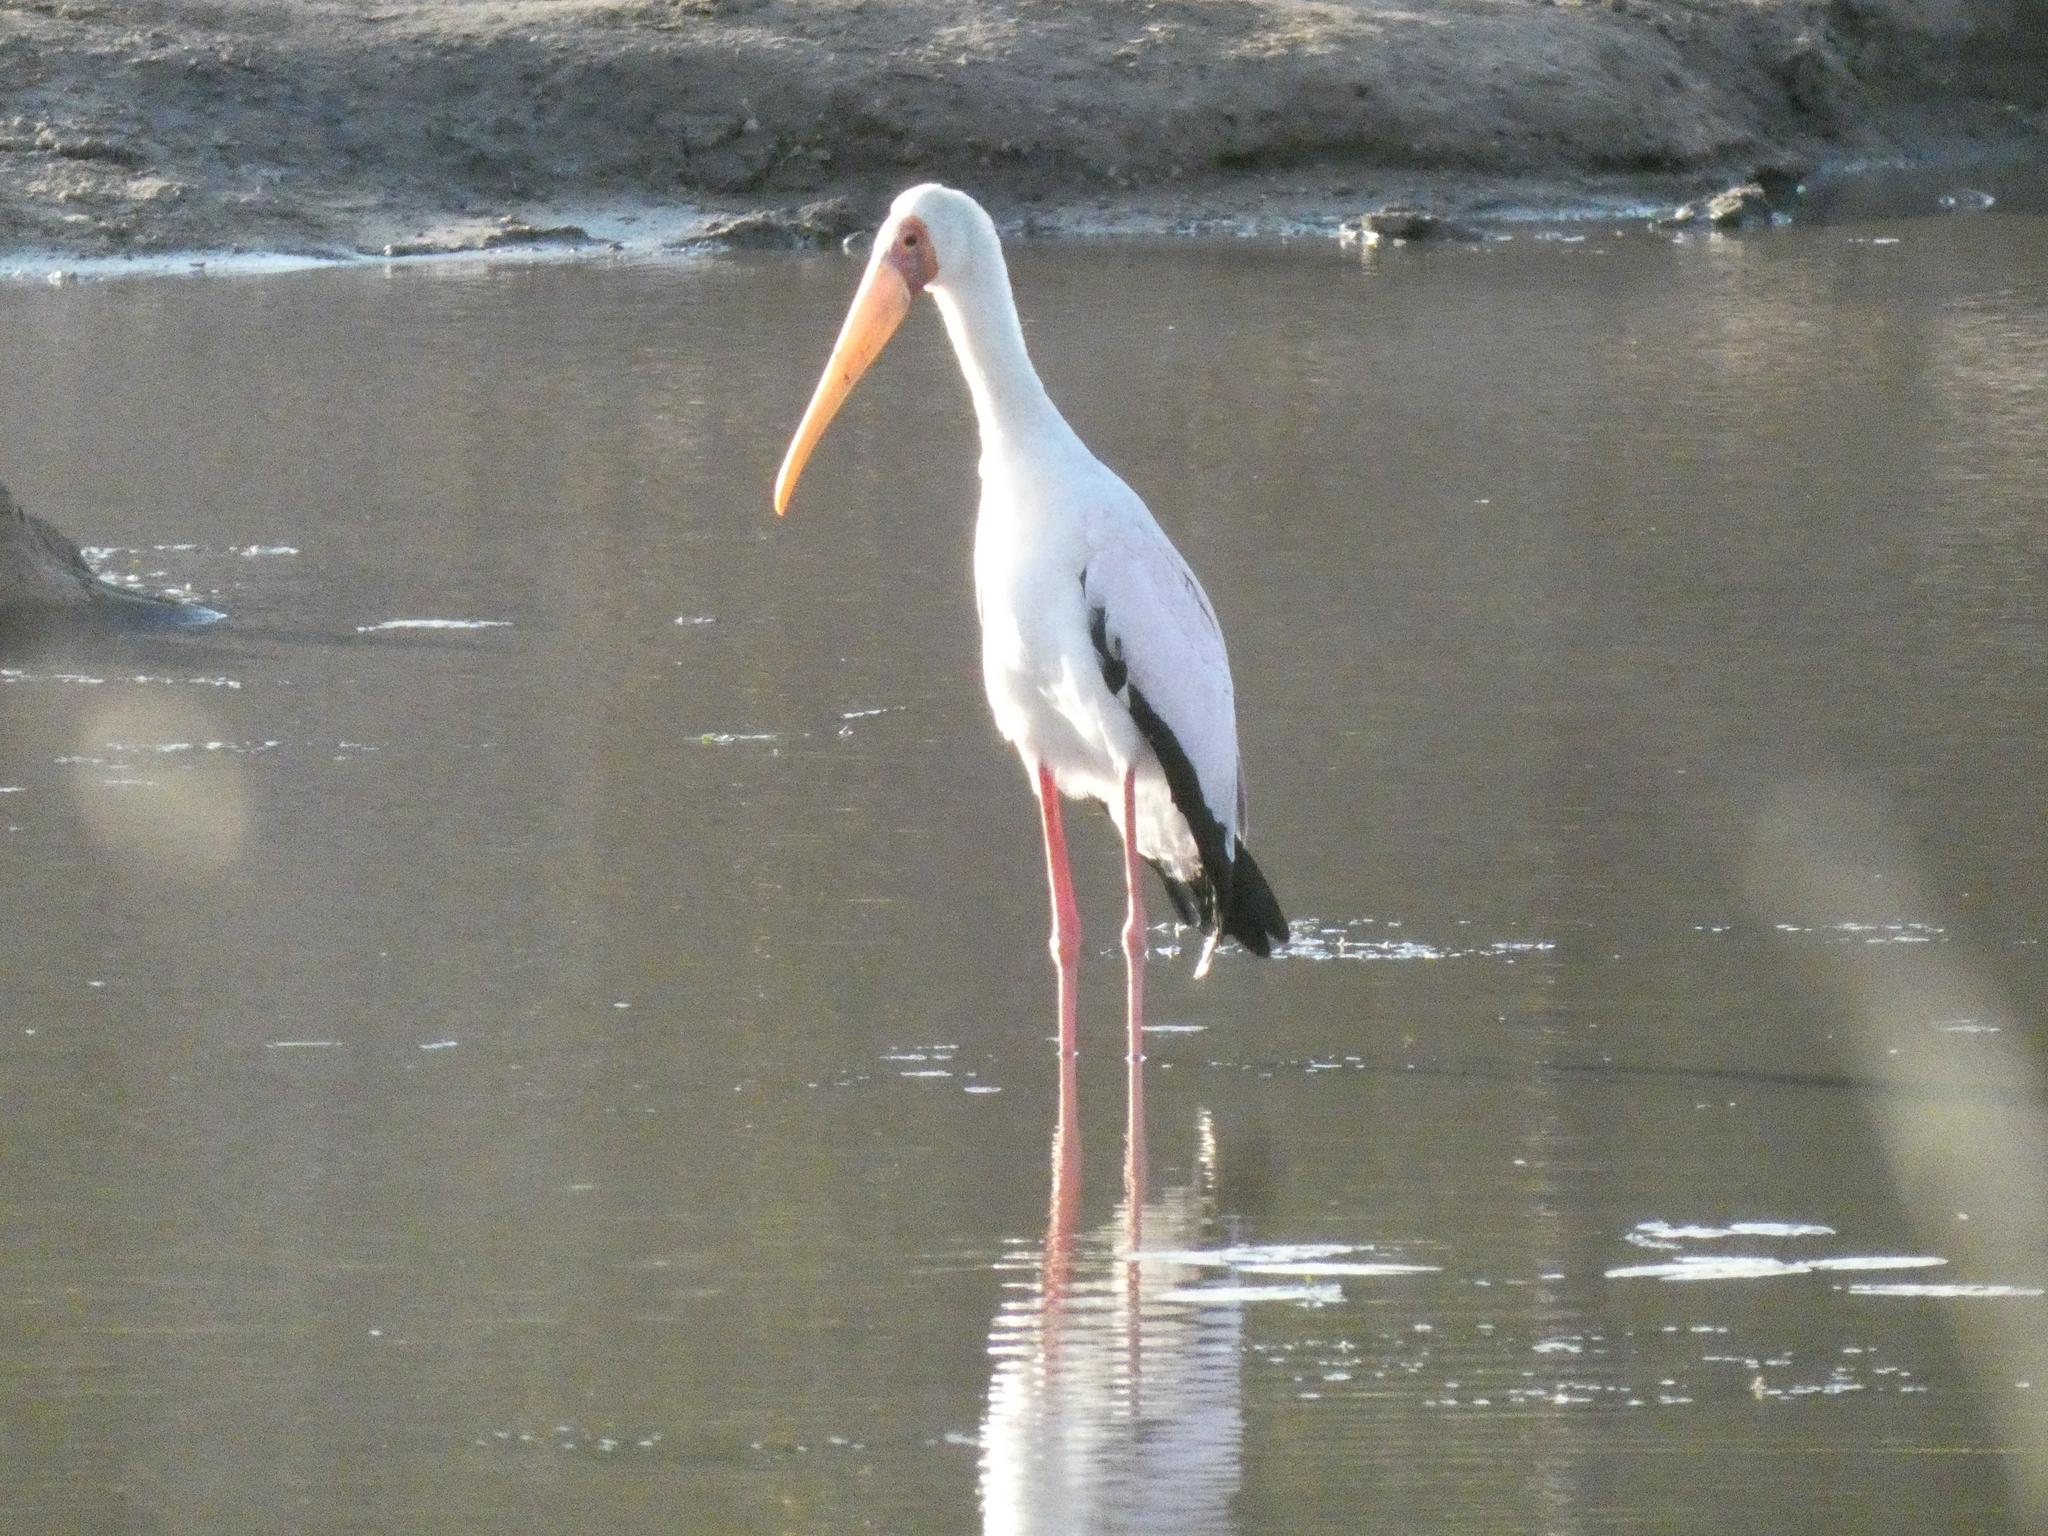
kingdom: Animalia
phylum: Chordata
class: Aves
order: Ciconiiformes
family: Ciconiidae
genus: Mycteria
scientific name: Mycteria ibis
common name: Yellow-billed stork
